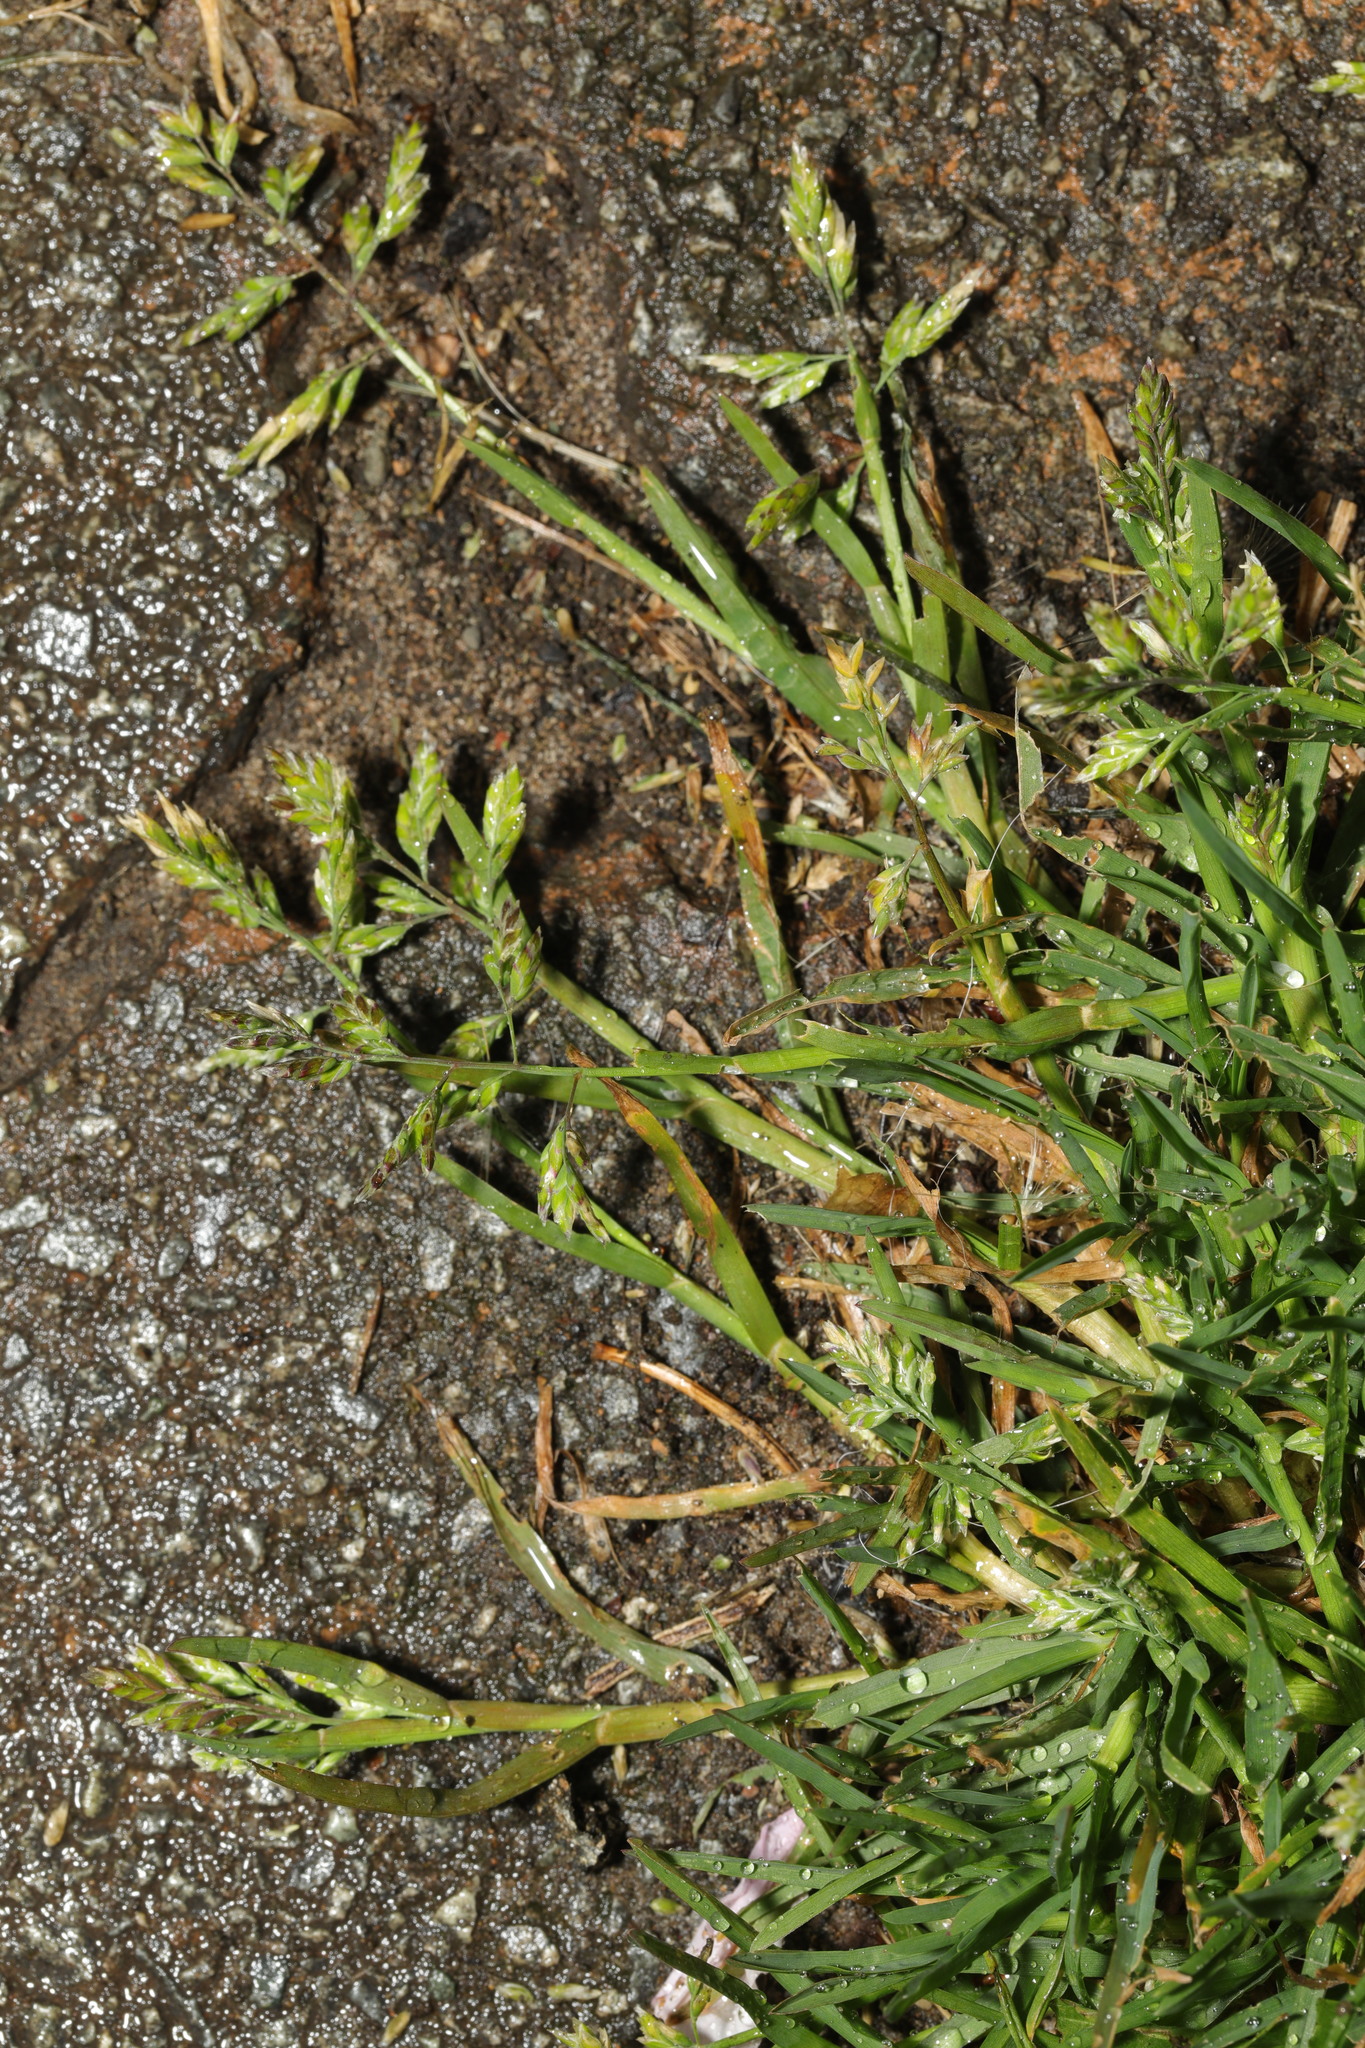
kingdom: Plantae
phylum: Tracheophyta
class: Liliopsida
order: Poales
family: Poaceae
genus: Poa
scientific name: Poa annua
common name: Annual bluegrass
